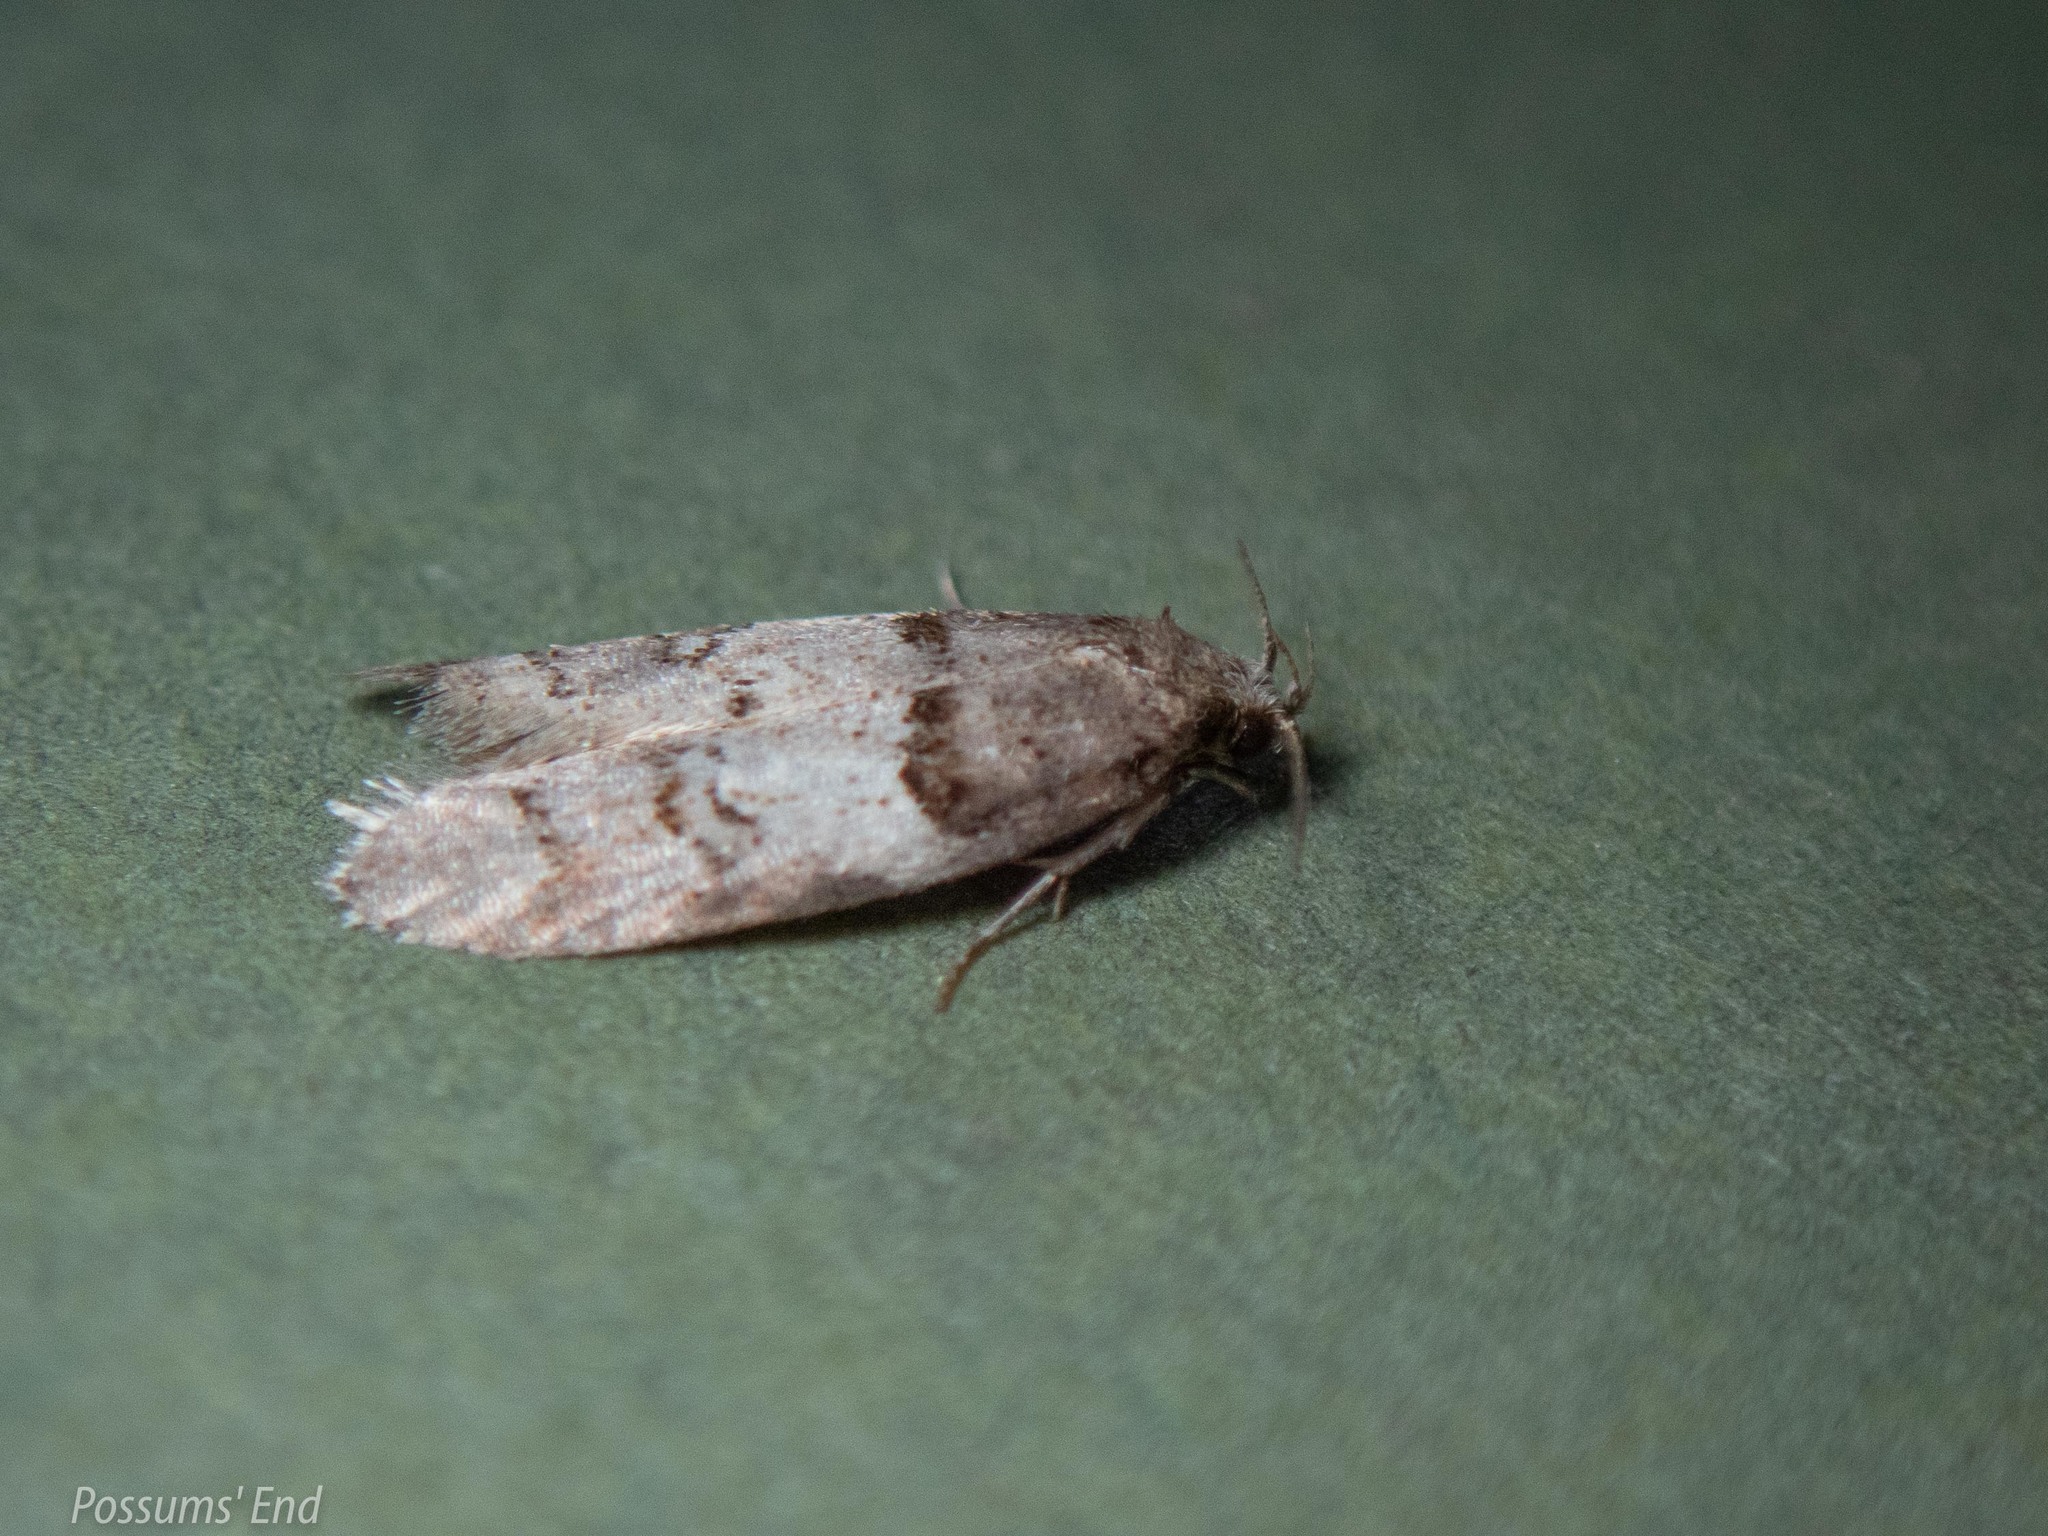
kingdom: Animalia
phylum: Arthropoda
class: Insecta
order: Lepidoptera
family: Oecophoridae
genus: Trachypepla
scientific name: Trachypepla contritella
